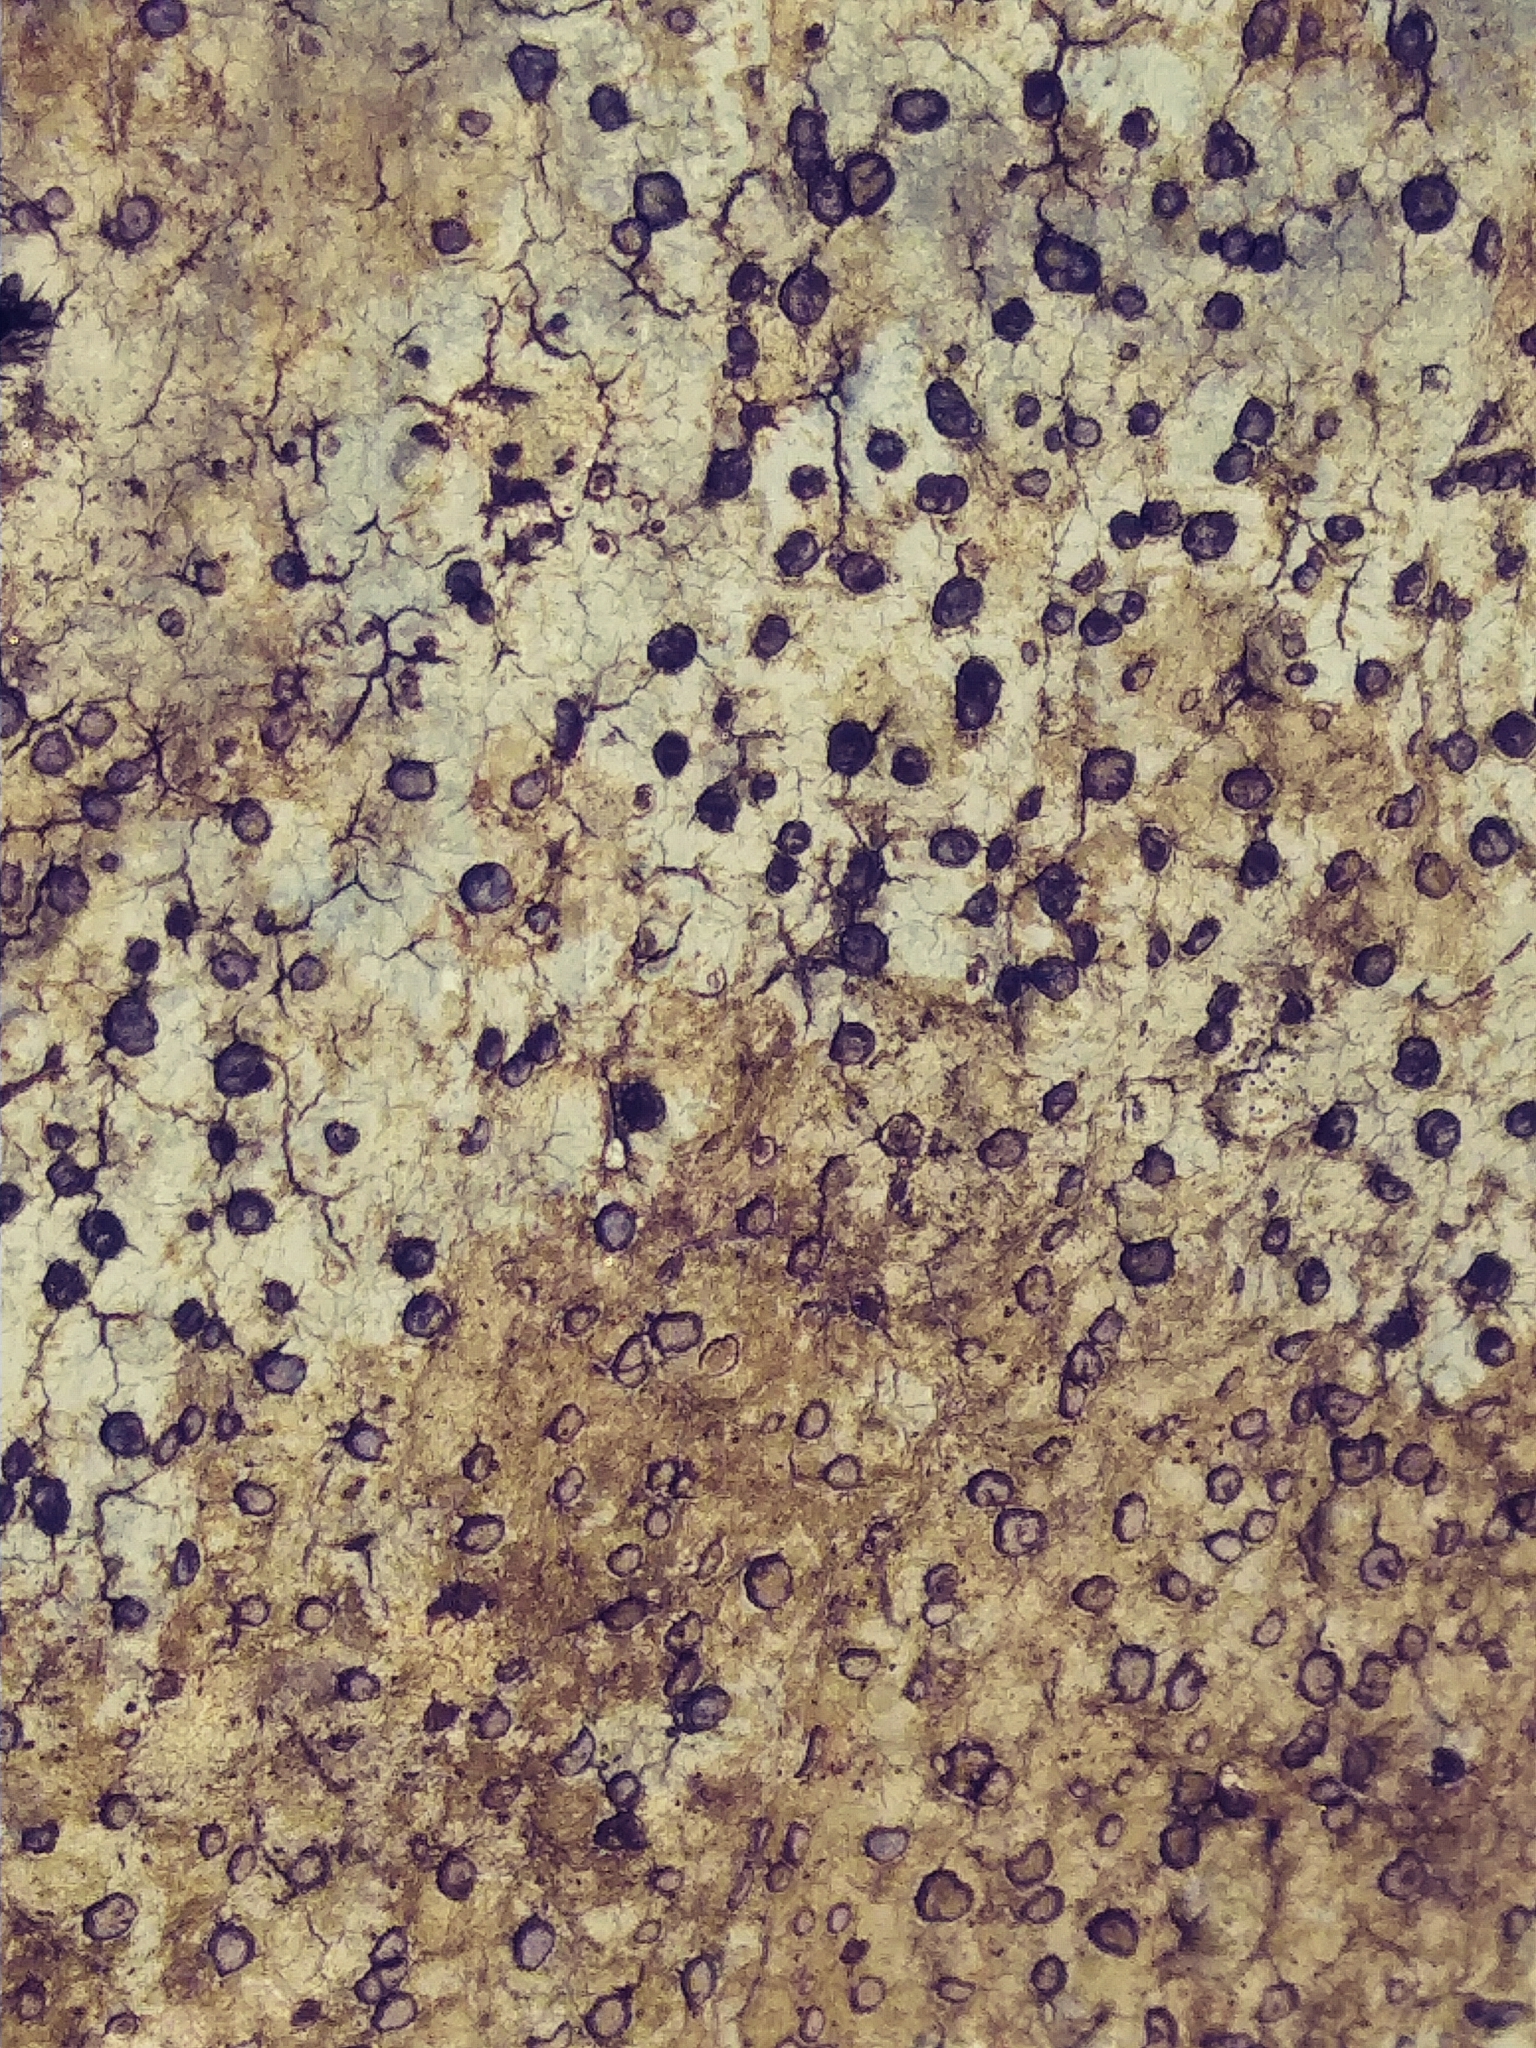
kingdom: Fungi
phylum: Ascomycota
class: Lecanoromycetes
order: Lecideales
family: Lecideaceae
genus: Porpidia
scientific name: Porpidia albocaerulescens
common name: Smokey-eyed boulder lichen
